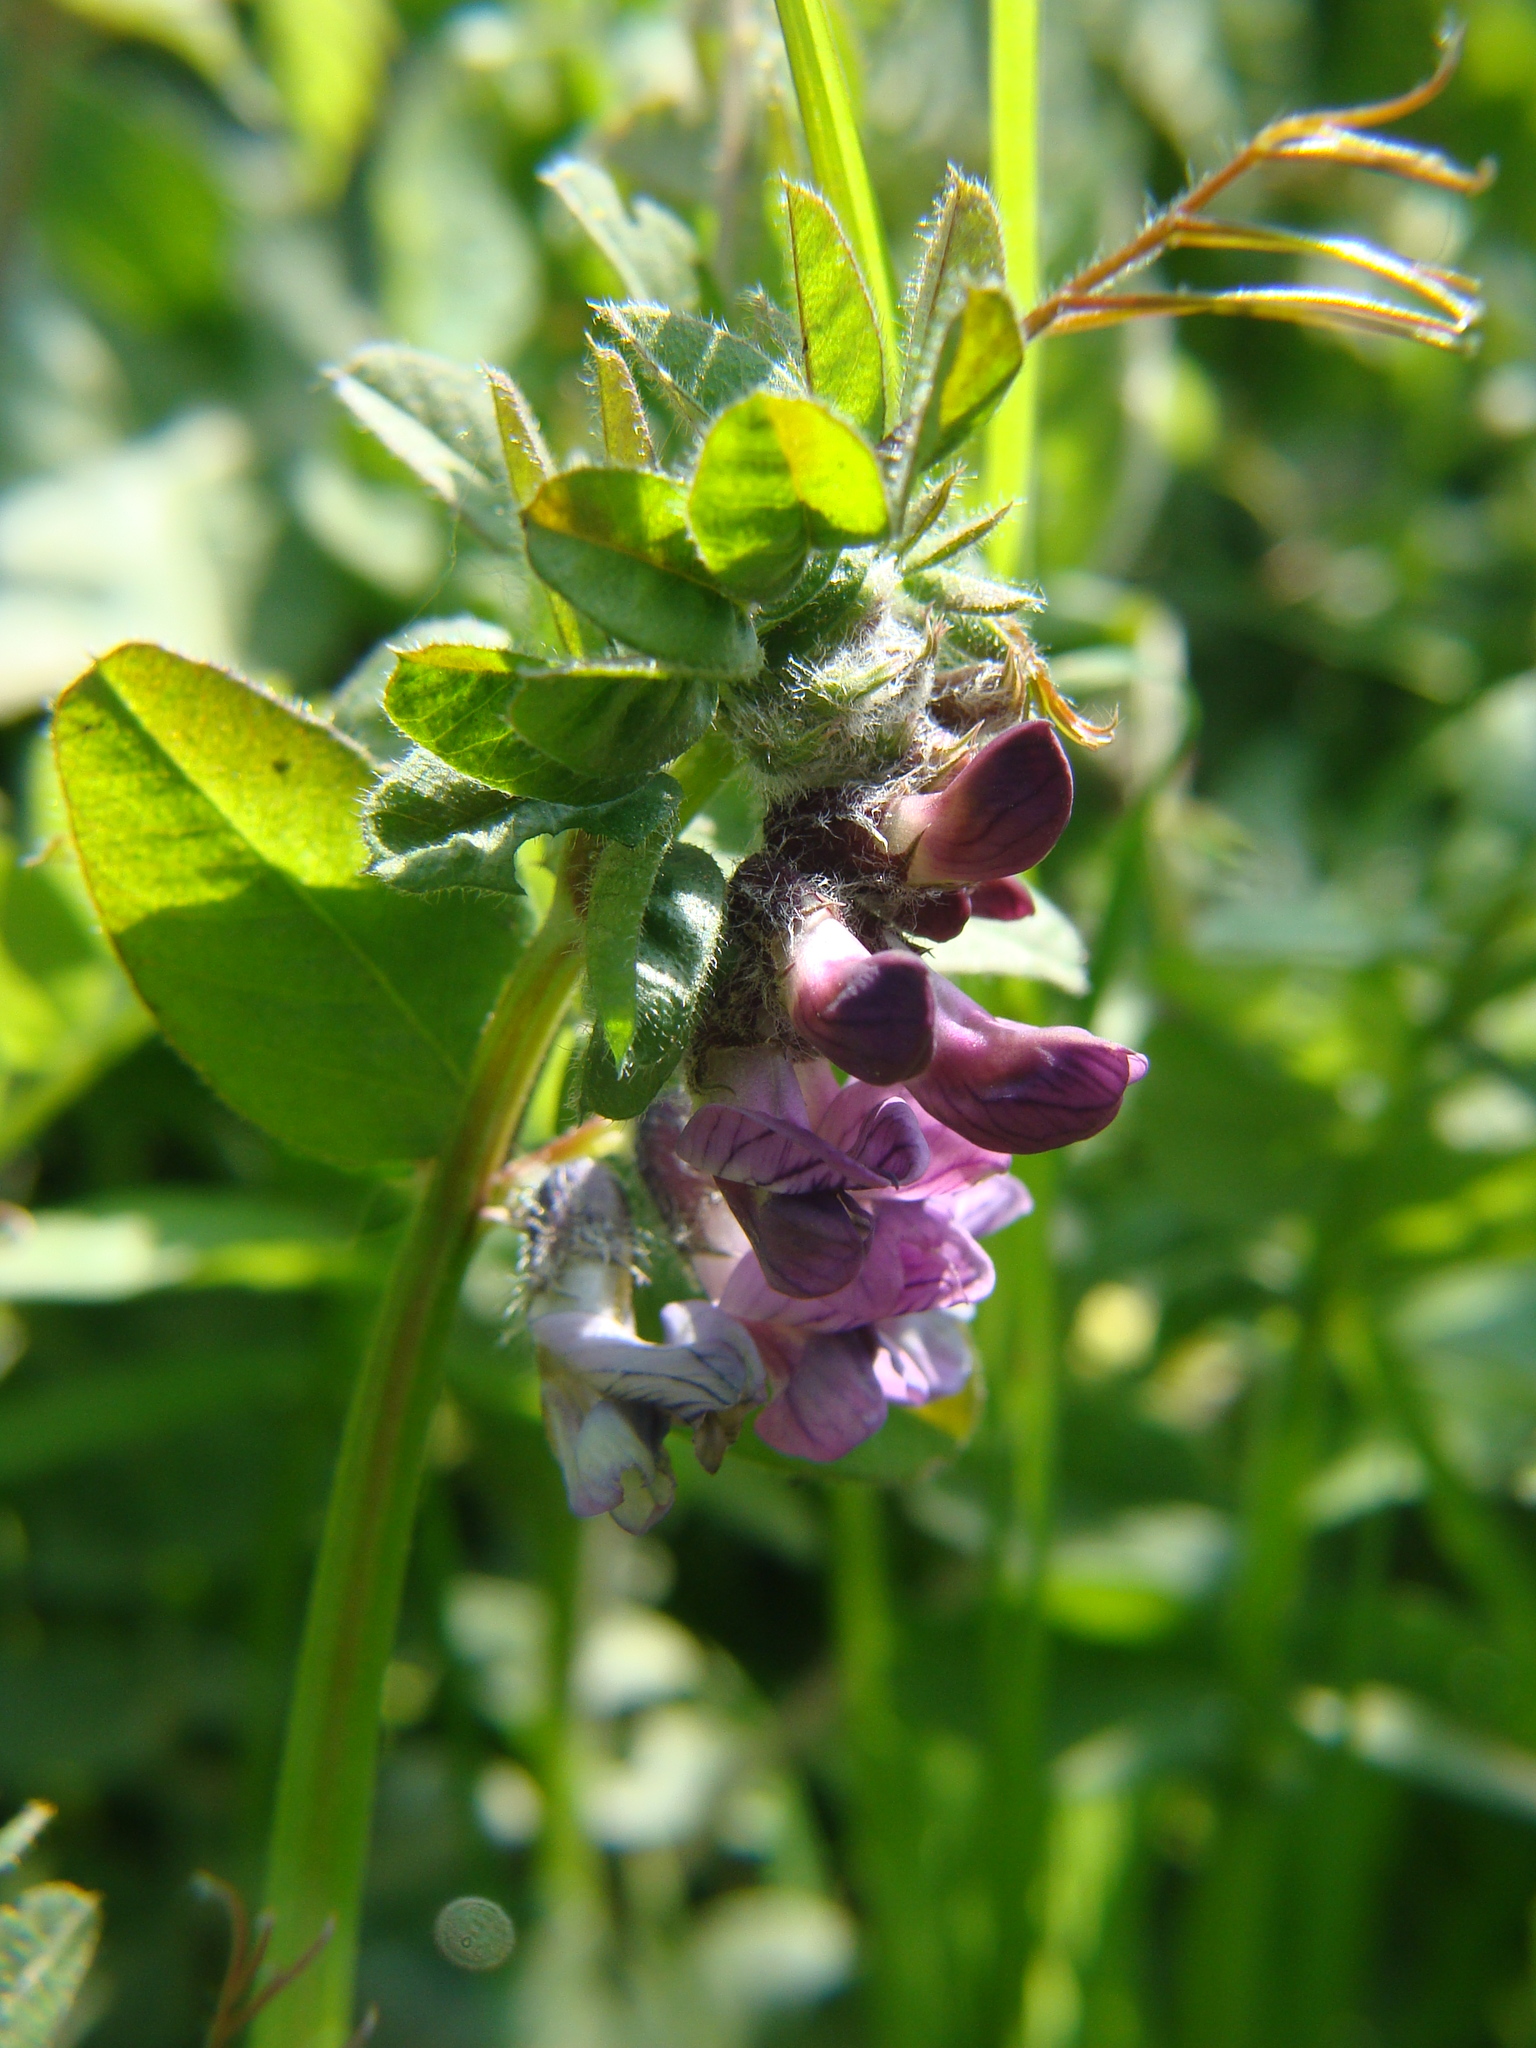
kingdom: Plantae
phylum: Tracheophyta
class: Magnoliopsida
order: Fabales
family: Fabaceae
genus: Vicia
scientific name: Vicia sepium
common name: Bush vetch
